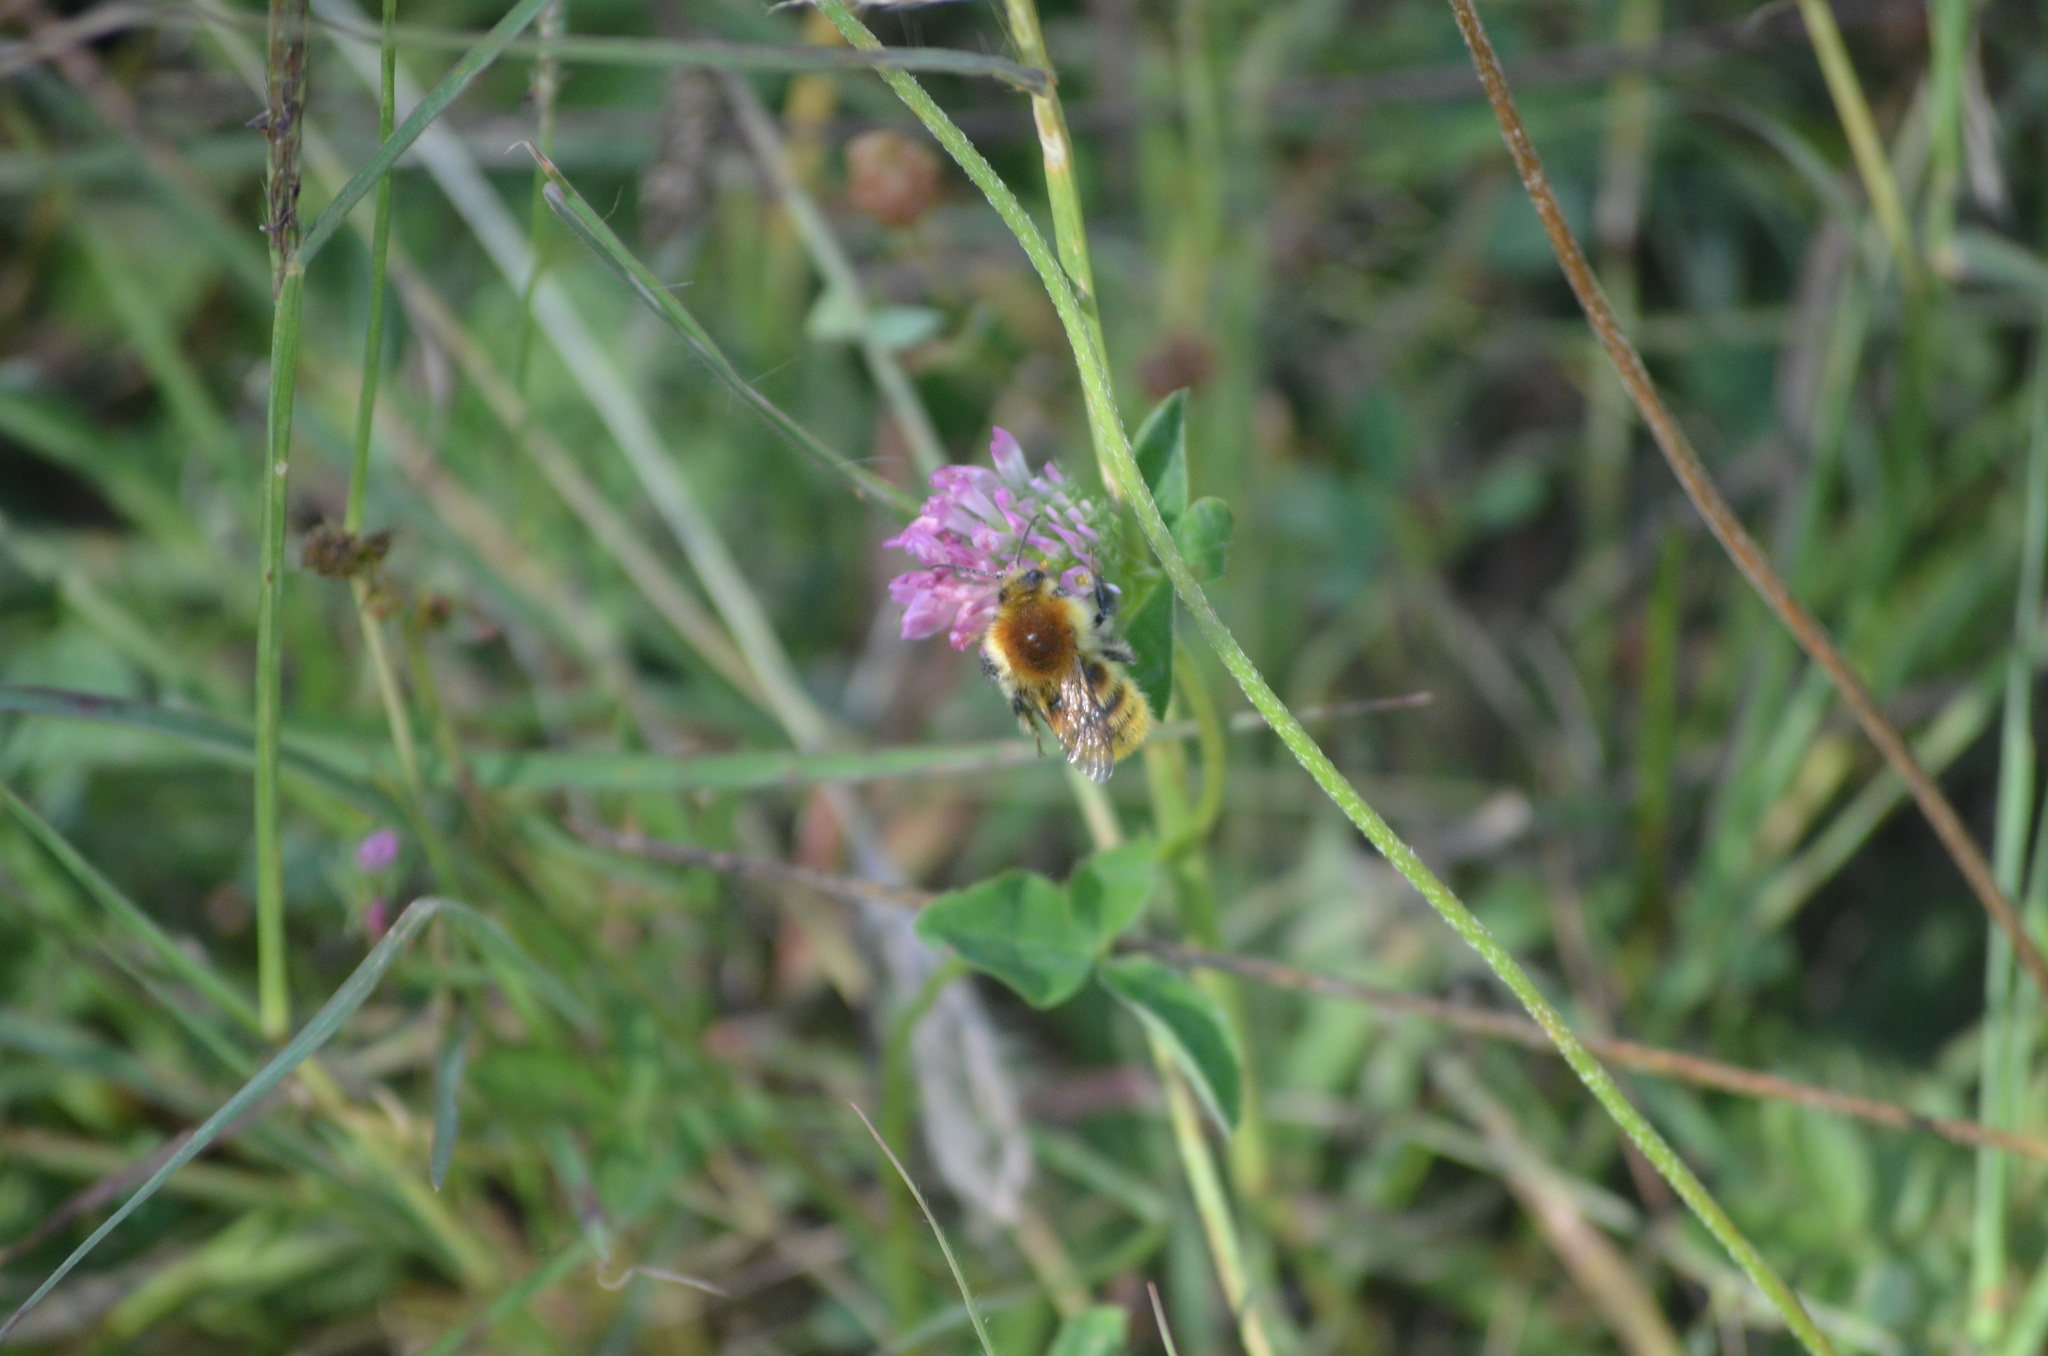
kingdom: Animalia
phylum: Arthropoda
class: Insecta
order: Hymenoptera
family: Apidae
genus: Bombus
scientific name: Bombus pascuorum
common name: Common carder bee
